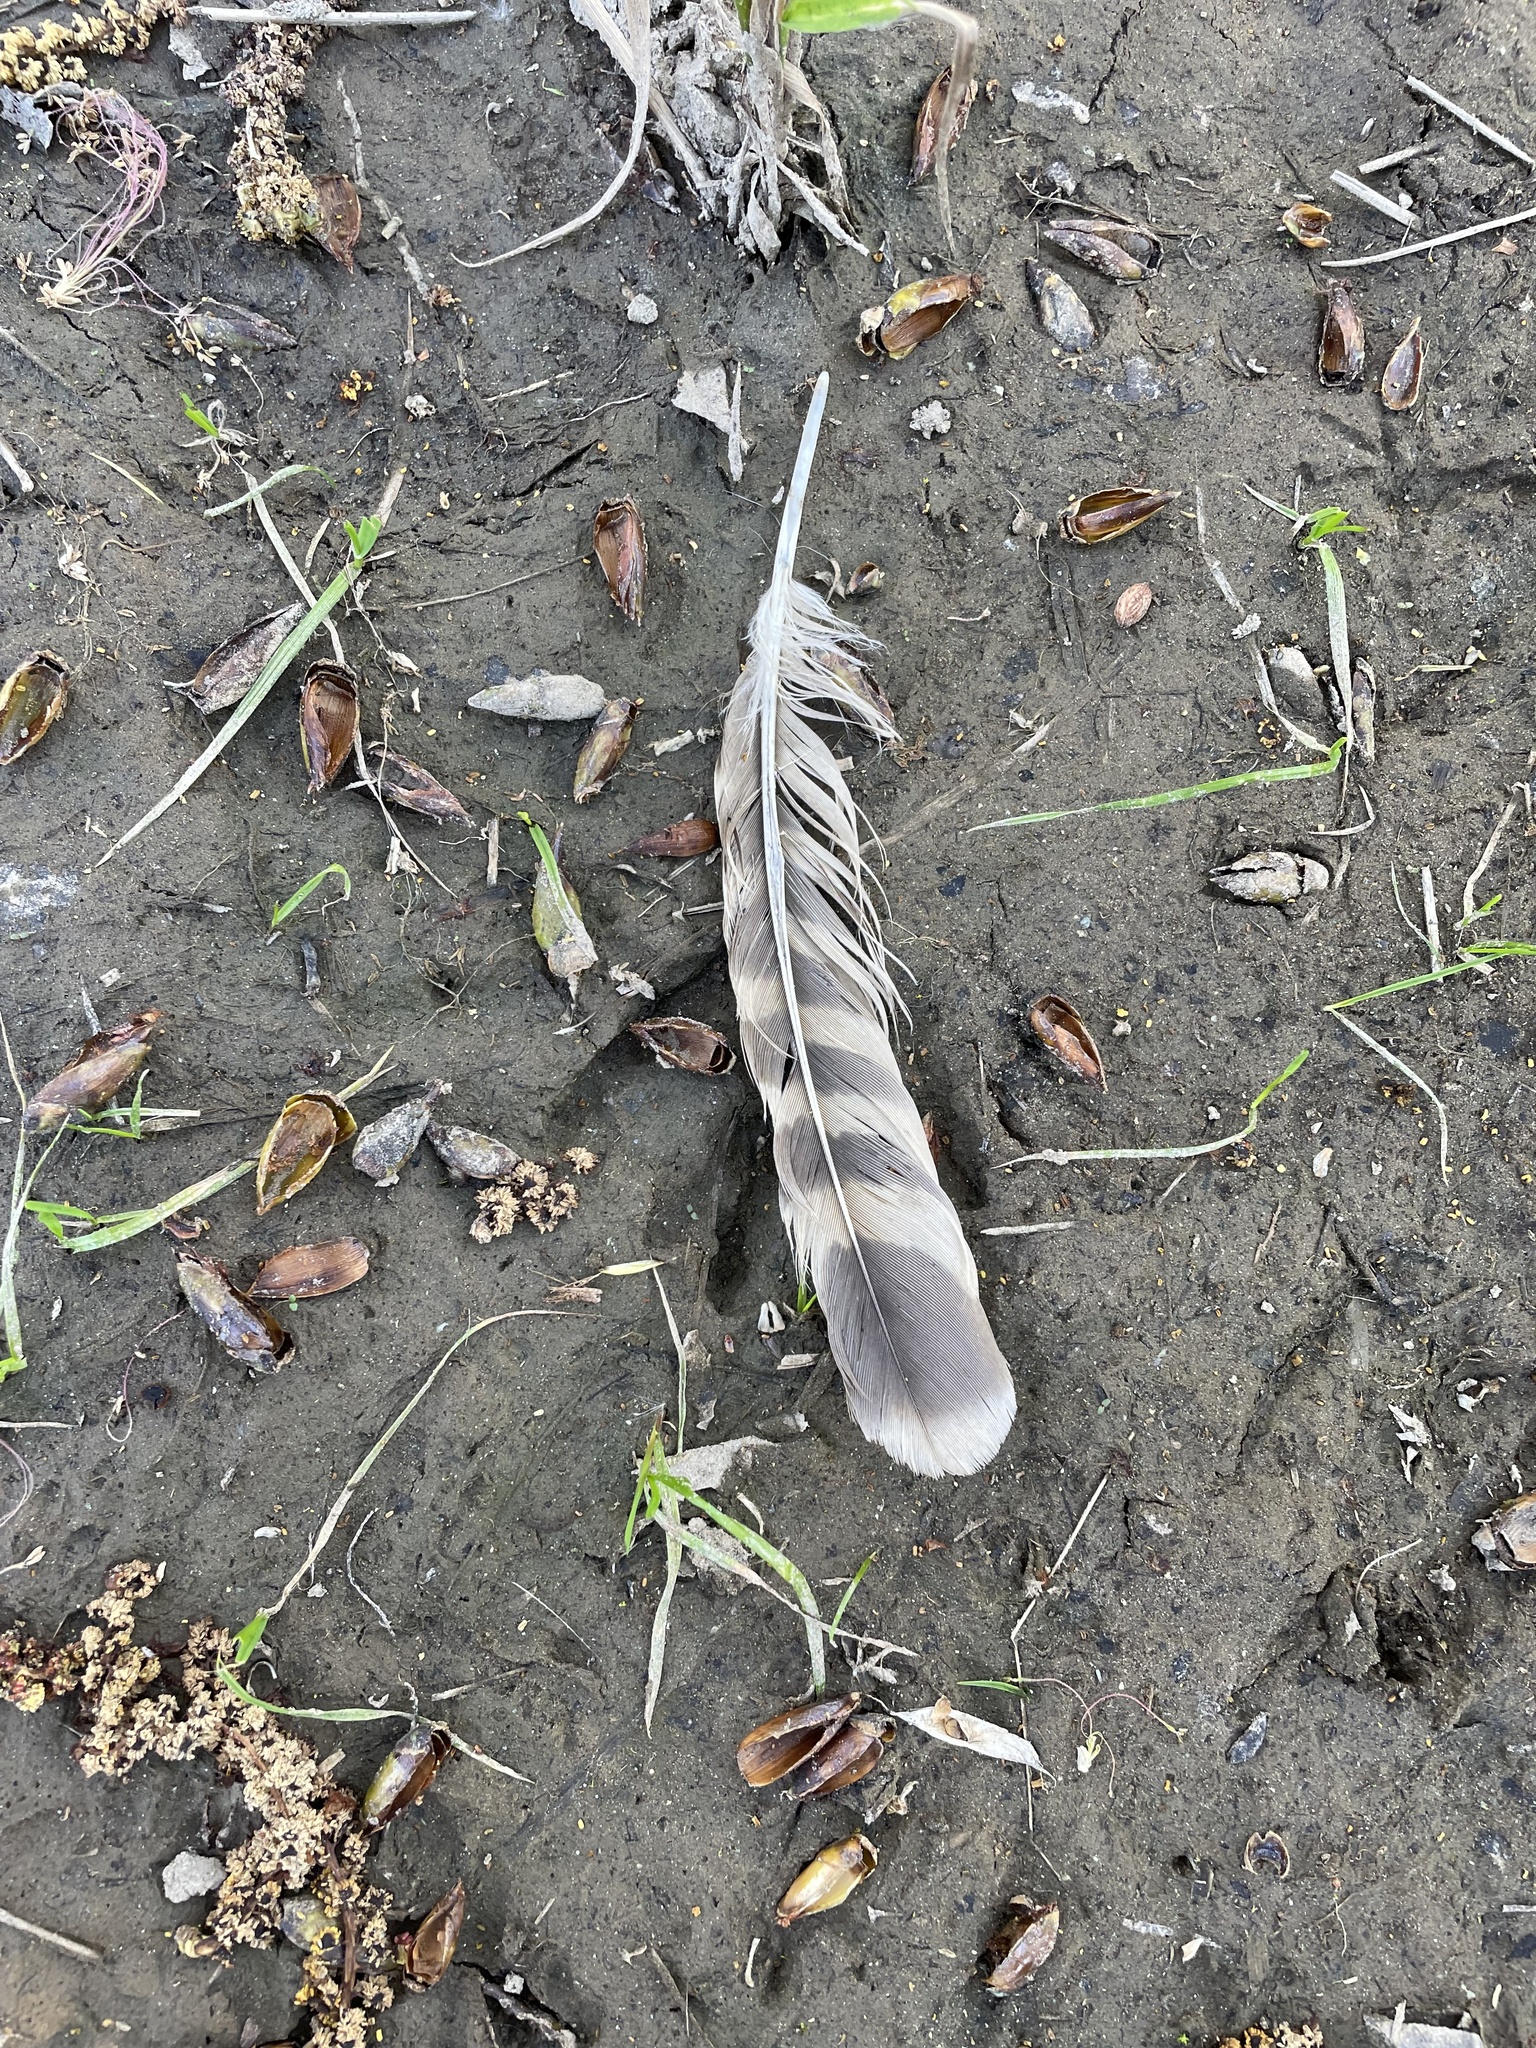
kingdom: Animalia
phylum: Chordata
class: Aves
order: Accipitriformes
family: Accipitridae
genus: Buteo
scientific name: Buteo lineatus
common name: Red-shouldered hawk
